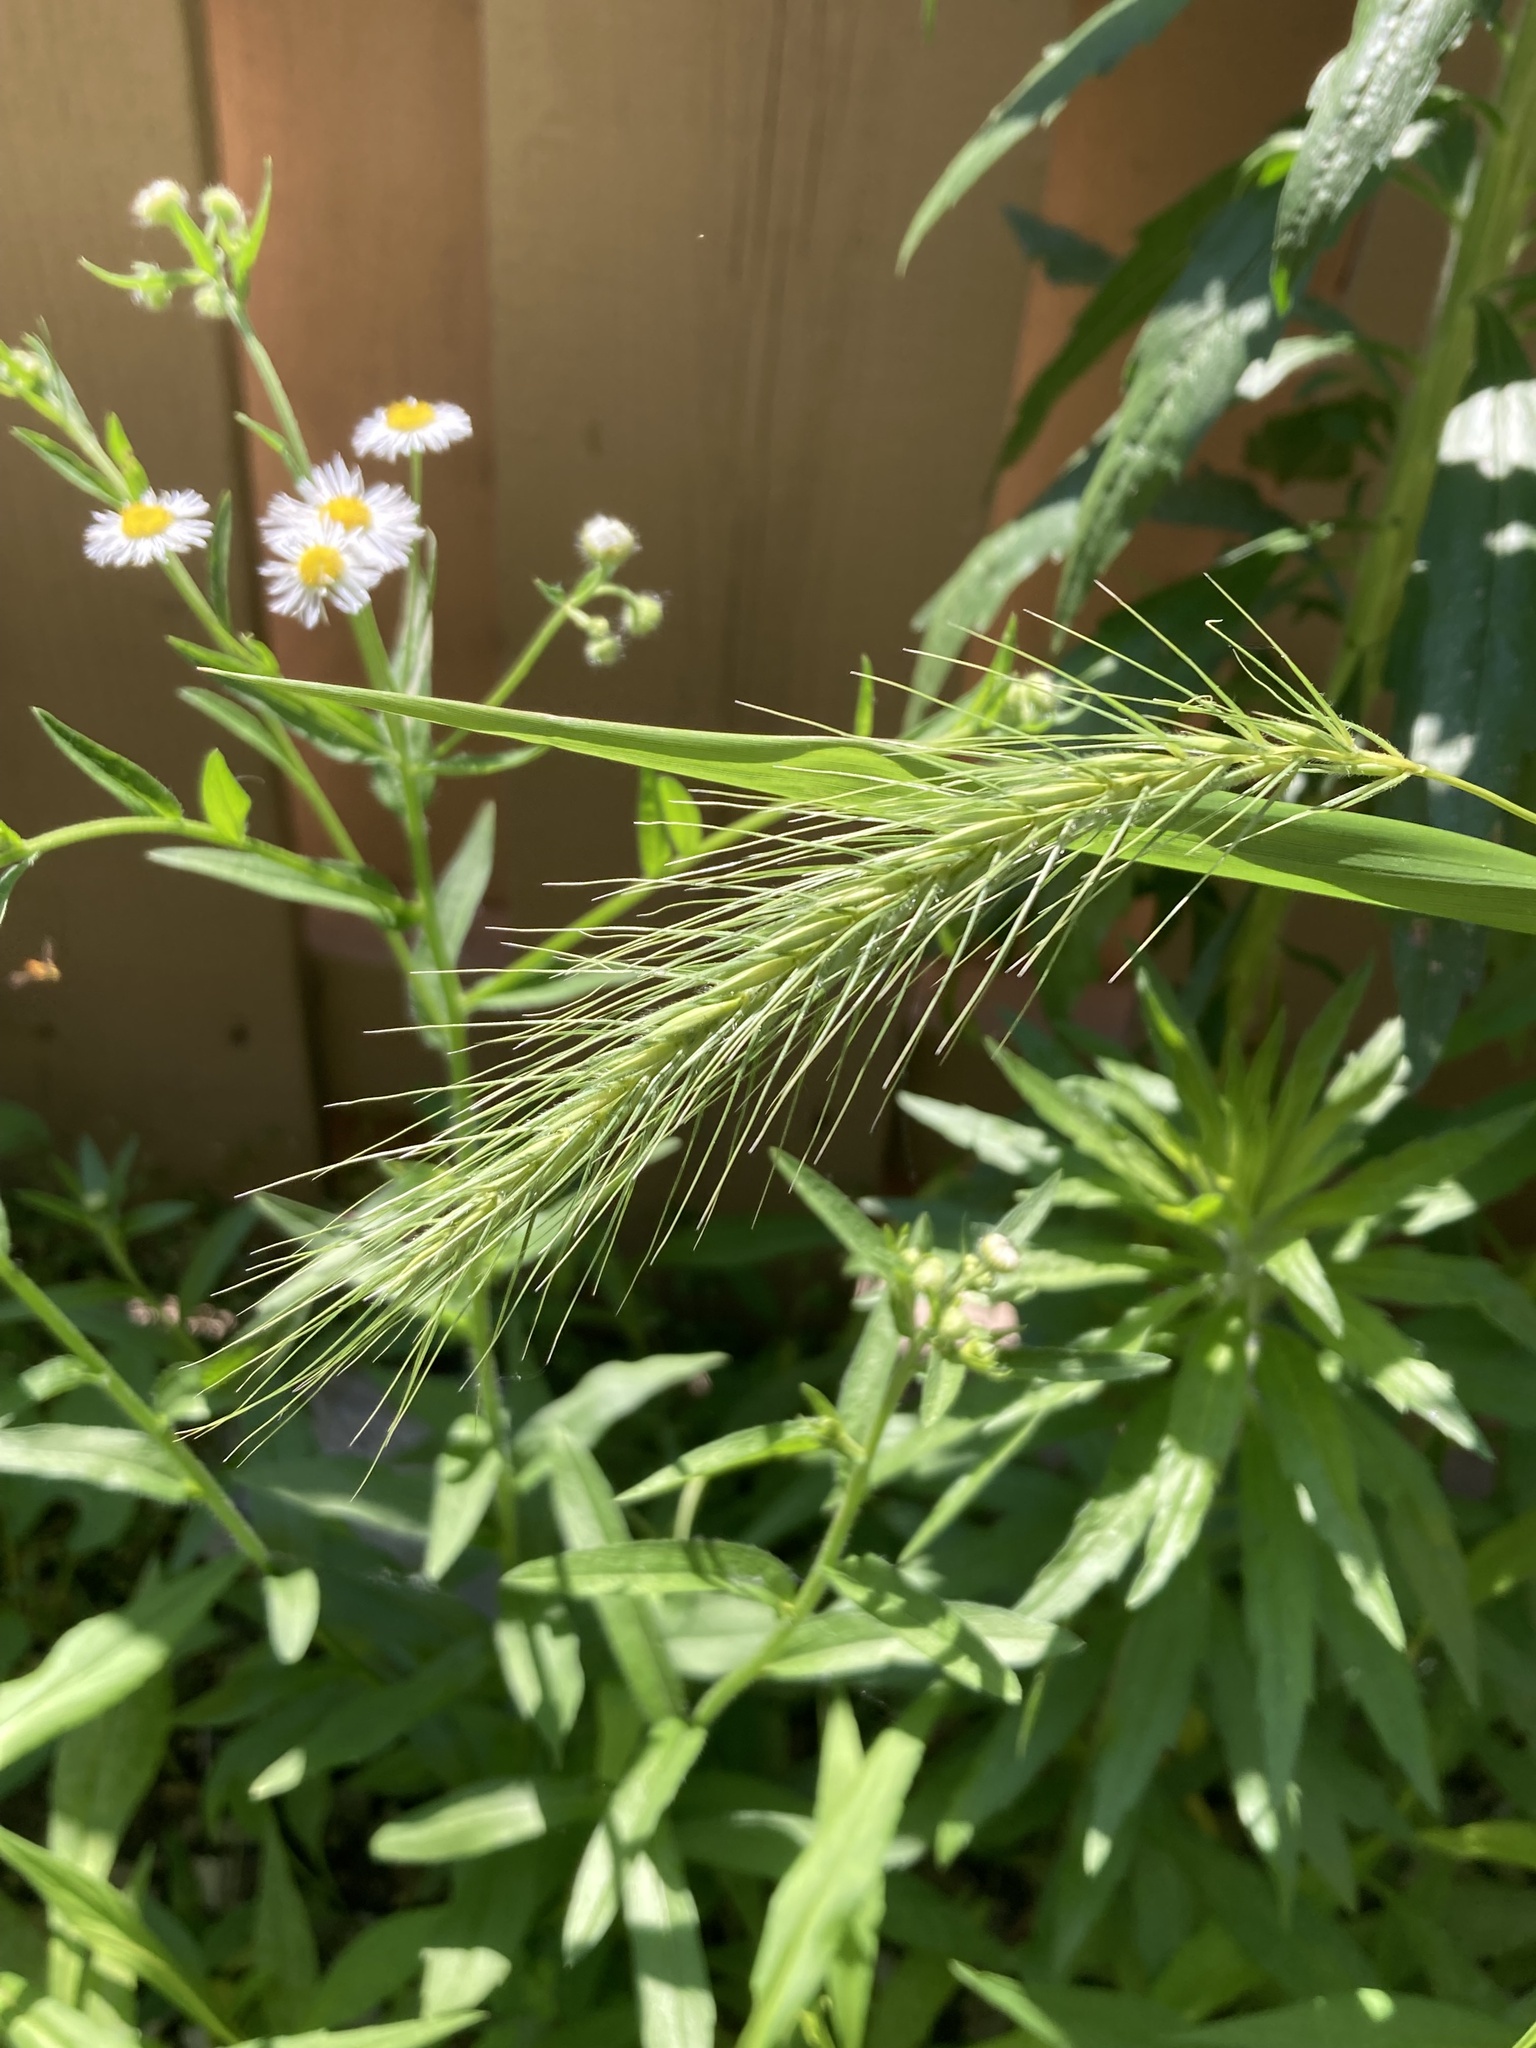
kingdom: Plantae
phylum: Tracheophyta
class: Liliopsida
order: Poales
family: Poaceae
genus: Elymus
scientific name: Elymus villosus
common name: Downy wild rye
